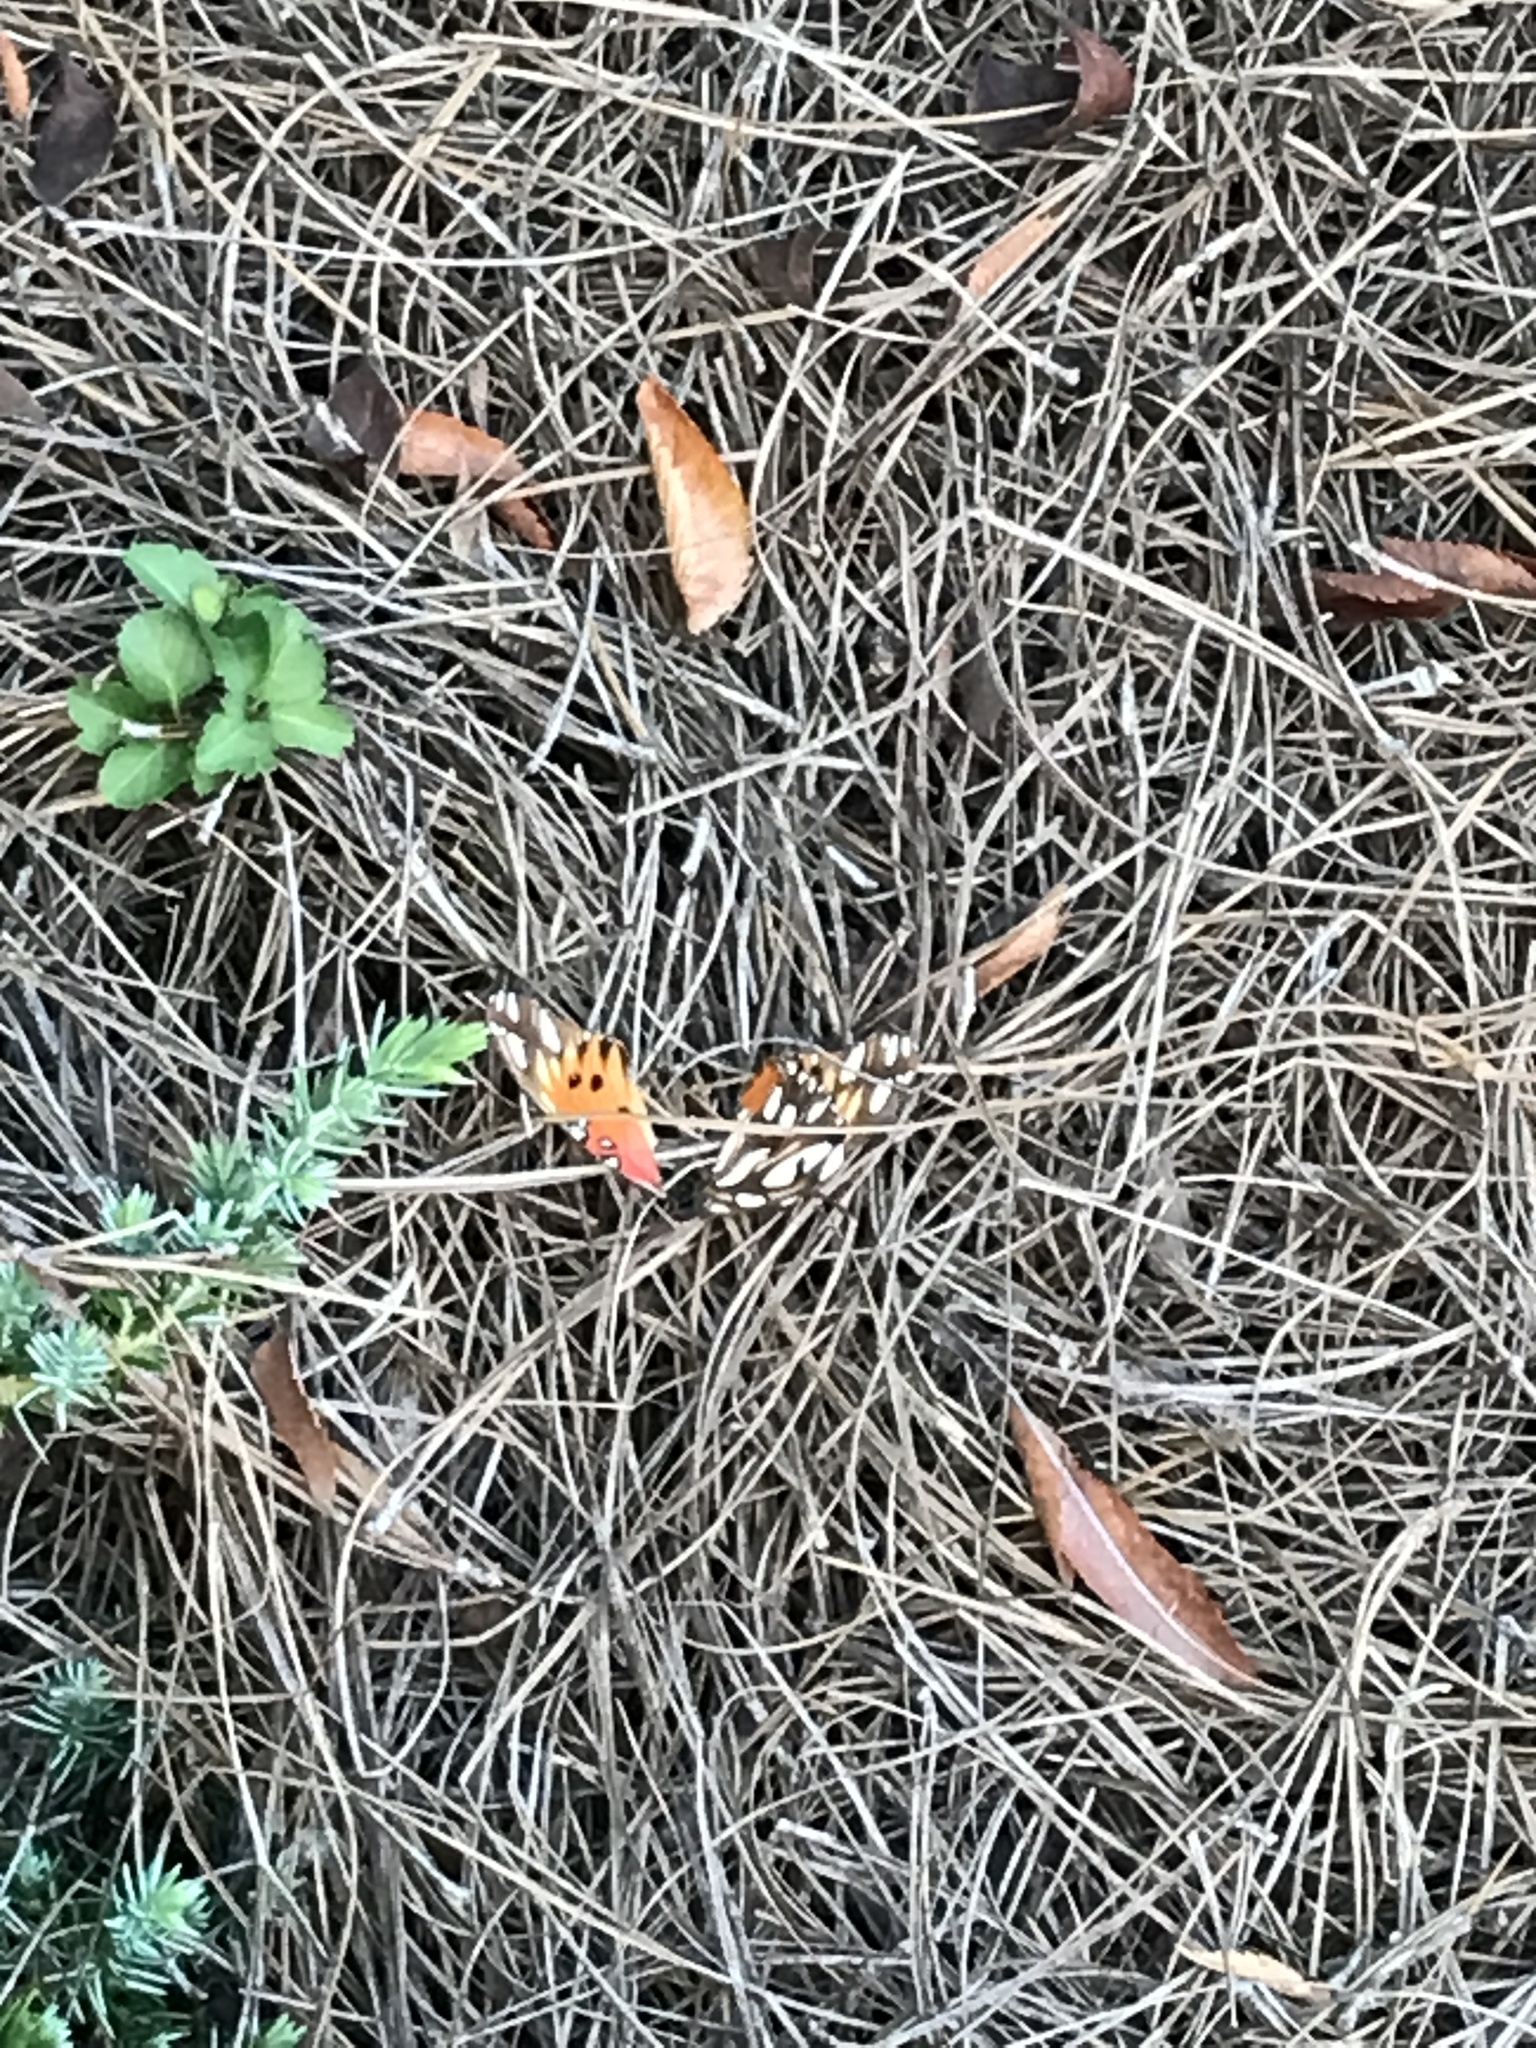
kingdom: Animalia
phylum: Arthropoda
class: Insecta
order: Lepidoptera
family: Nymphalidae
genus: Dione
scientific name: Dione vanillae
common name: Gulf fritillary
